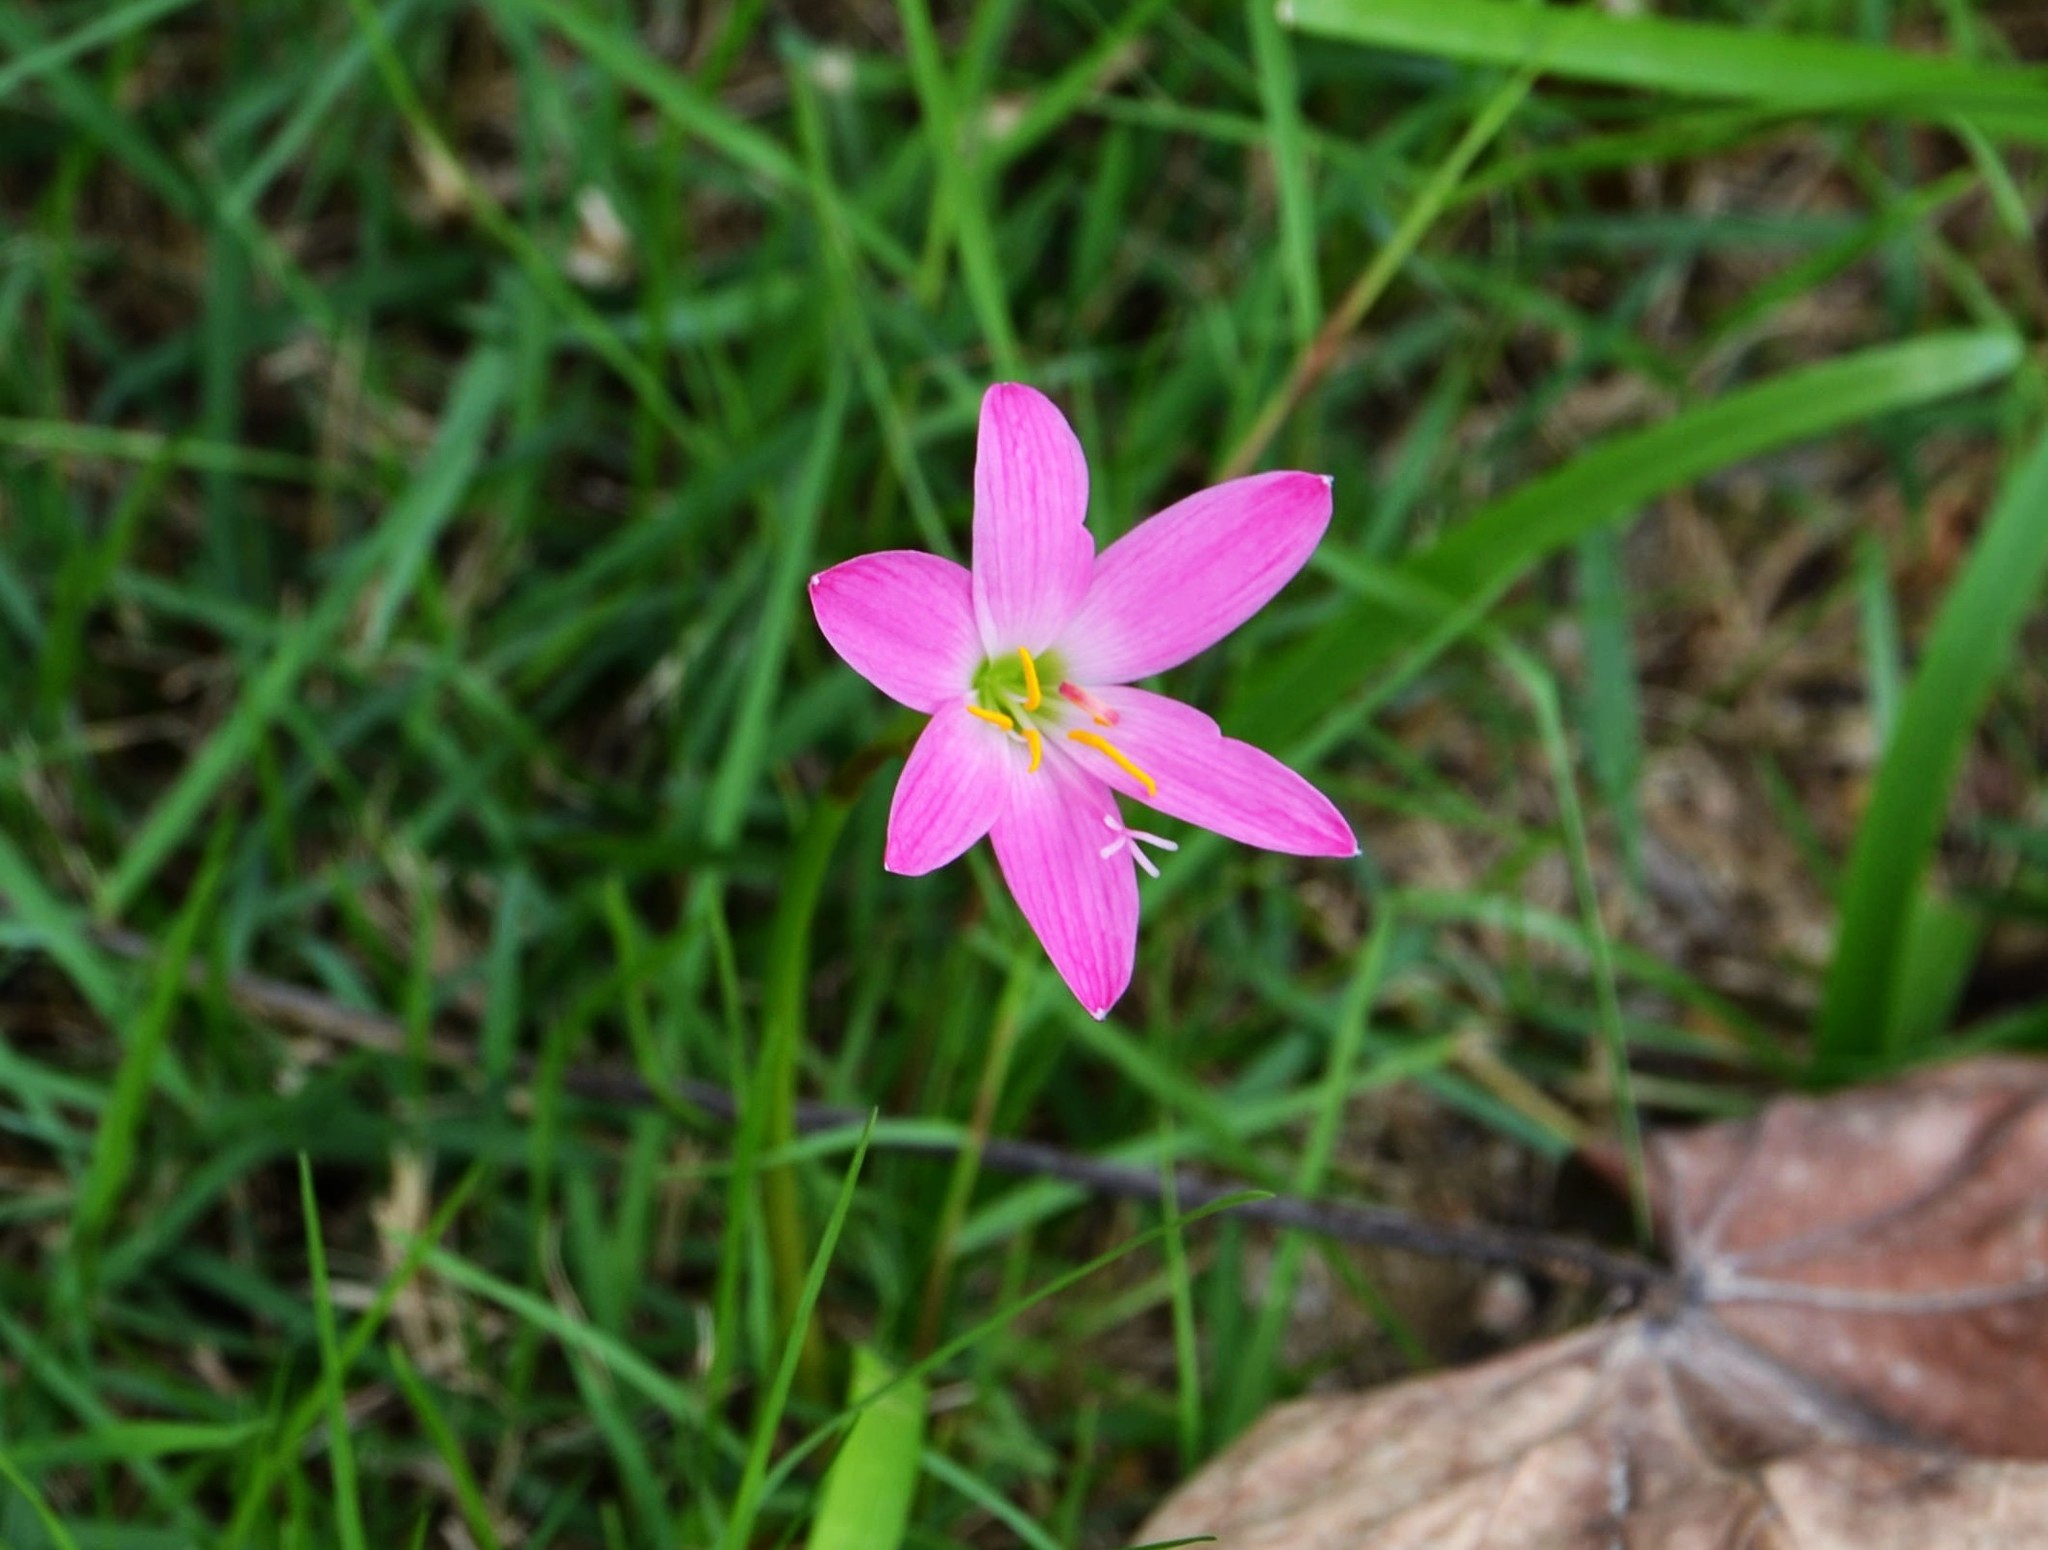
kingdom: Plantae
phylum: Tracheophyta
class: Liliopsida
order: Asparagales
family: Amaryllidaceae
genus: Zephyranthes
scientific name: Zephyranthes carinata
